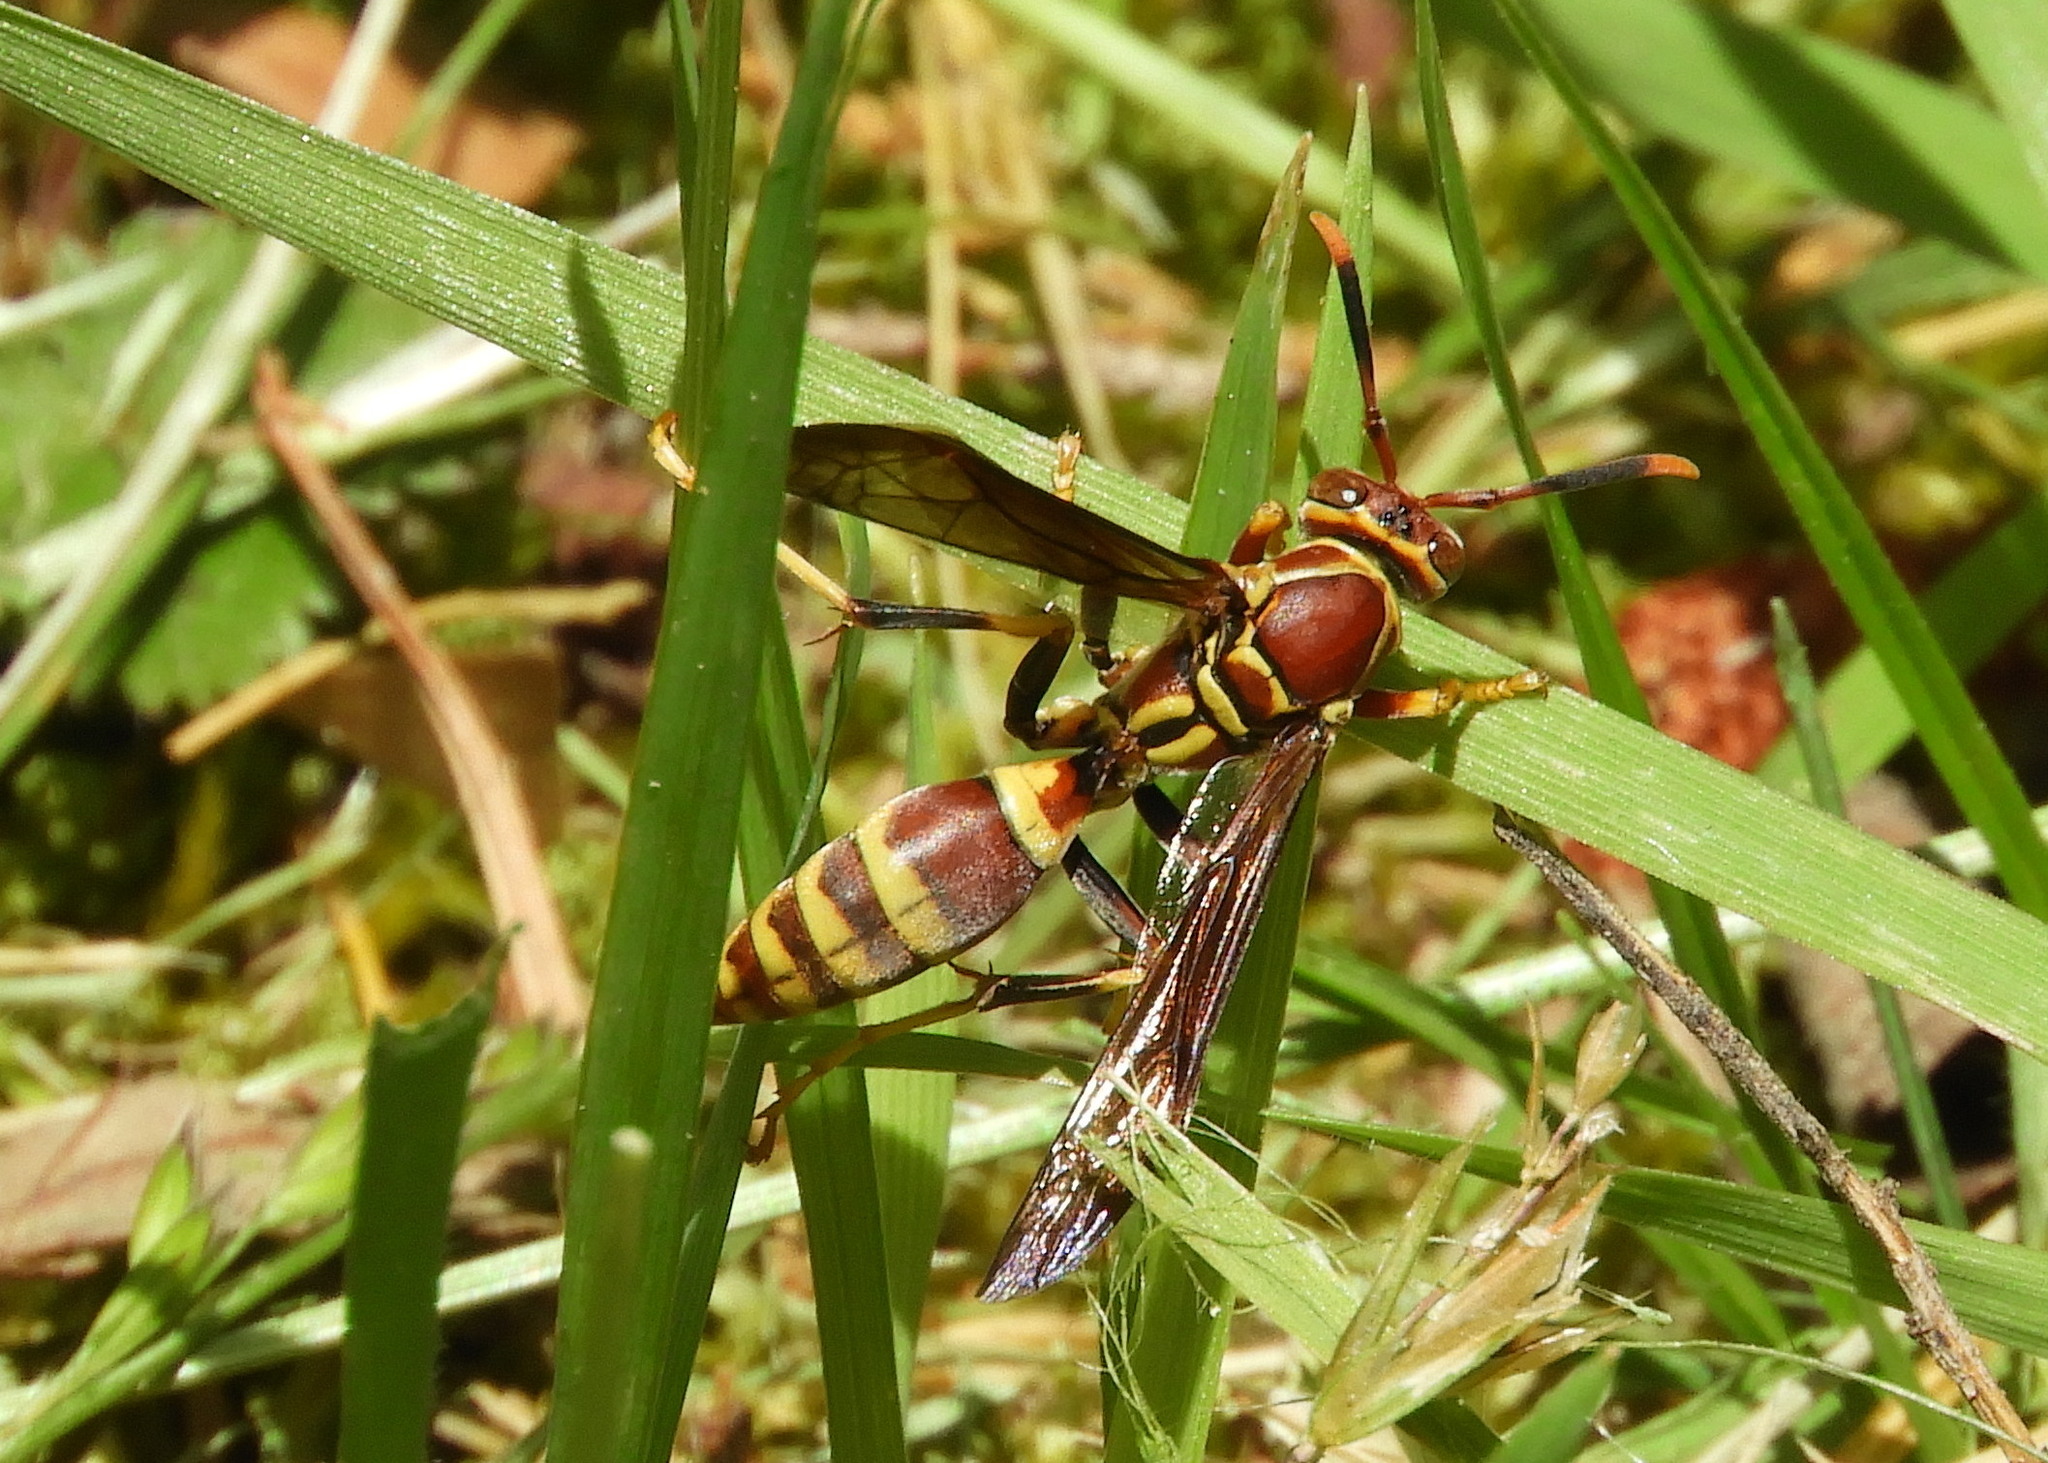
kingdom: Animalia
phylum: Arthropoda
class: Insecta
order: Hymenoptera
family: Eumenidae
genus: Polistes
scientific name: Polistes exclamans
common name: Paper wasp
